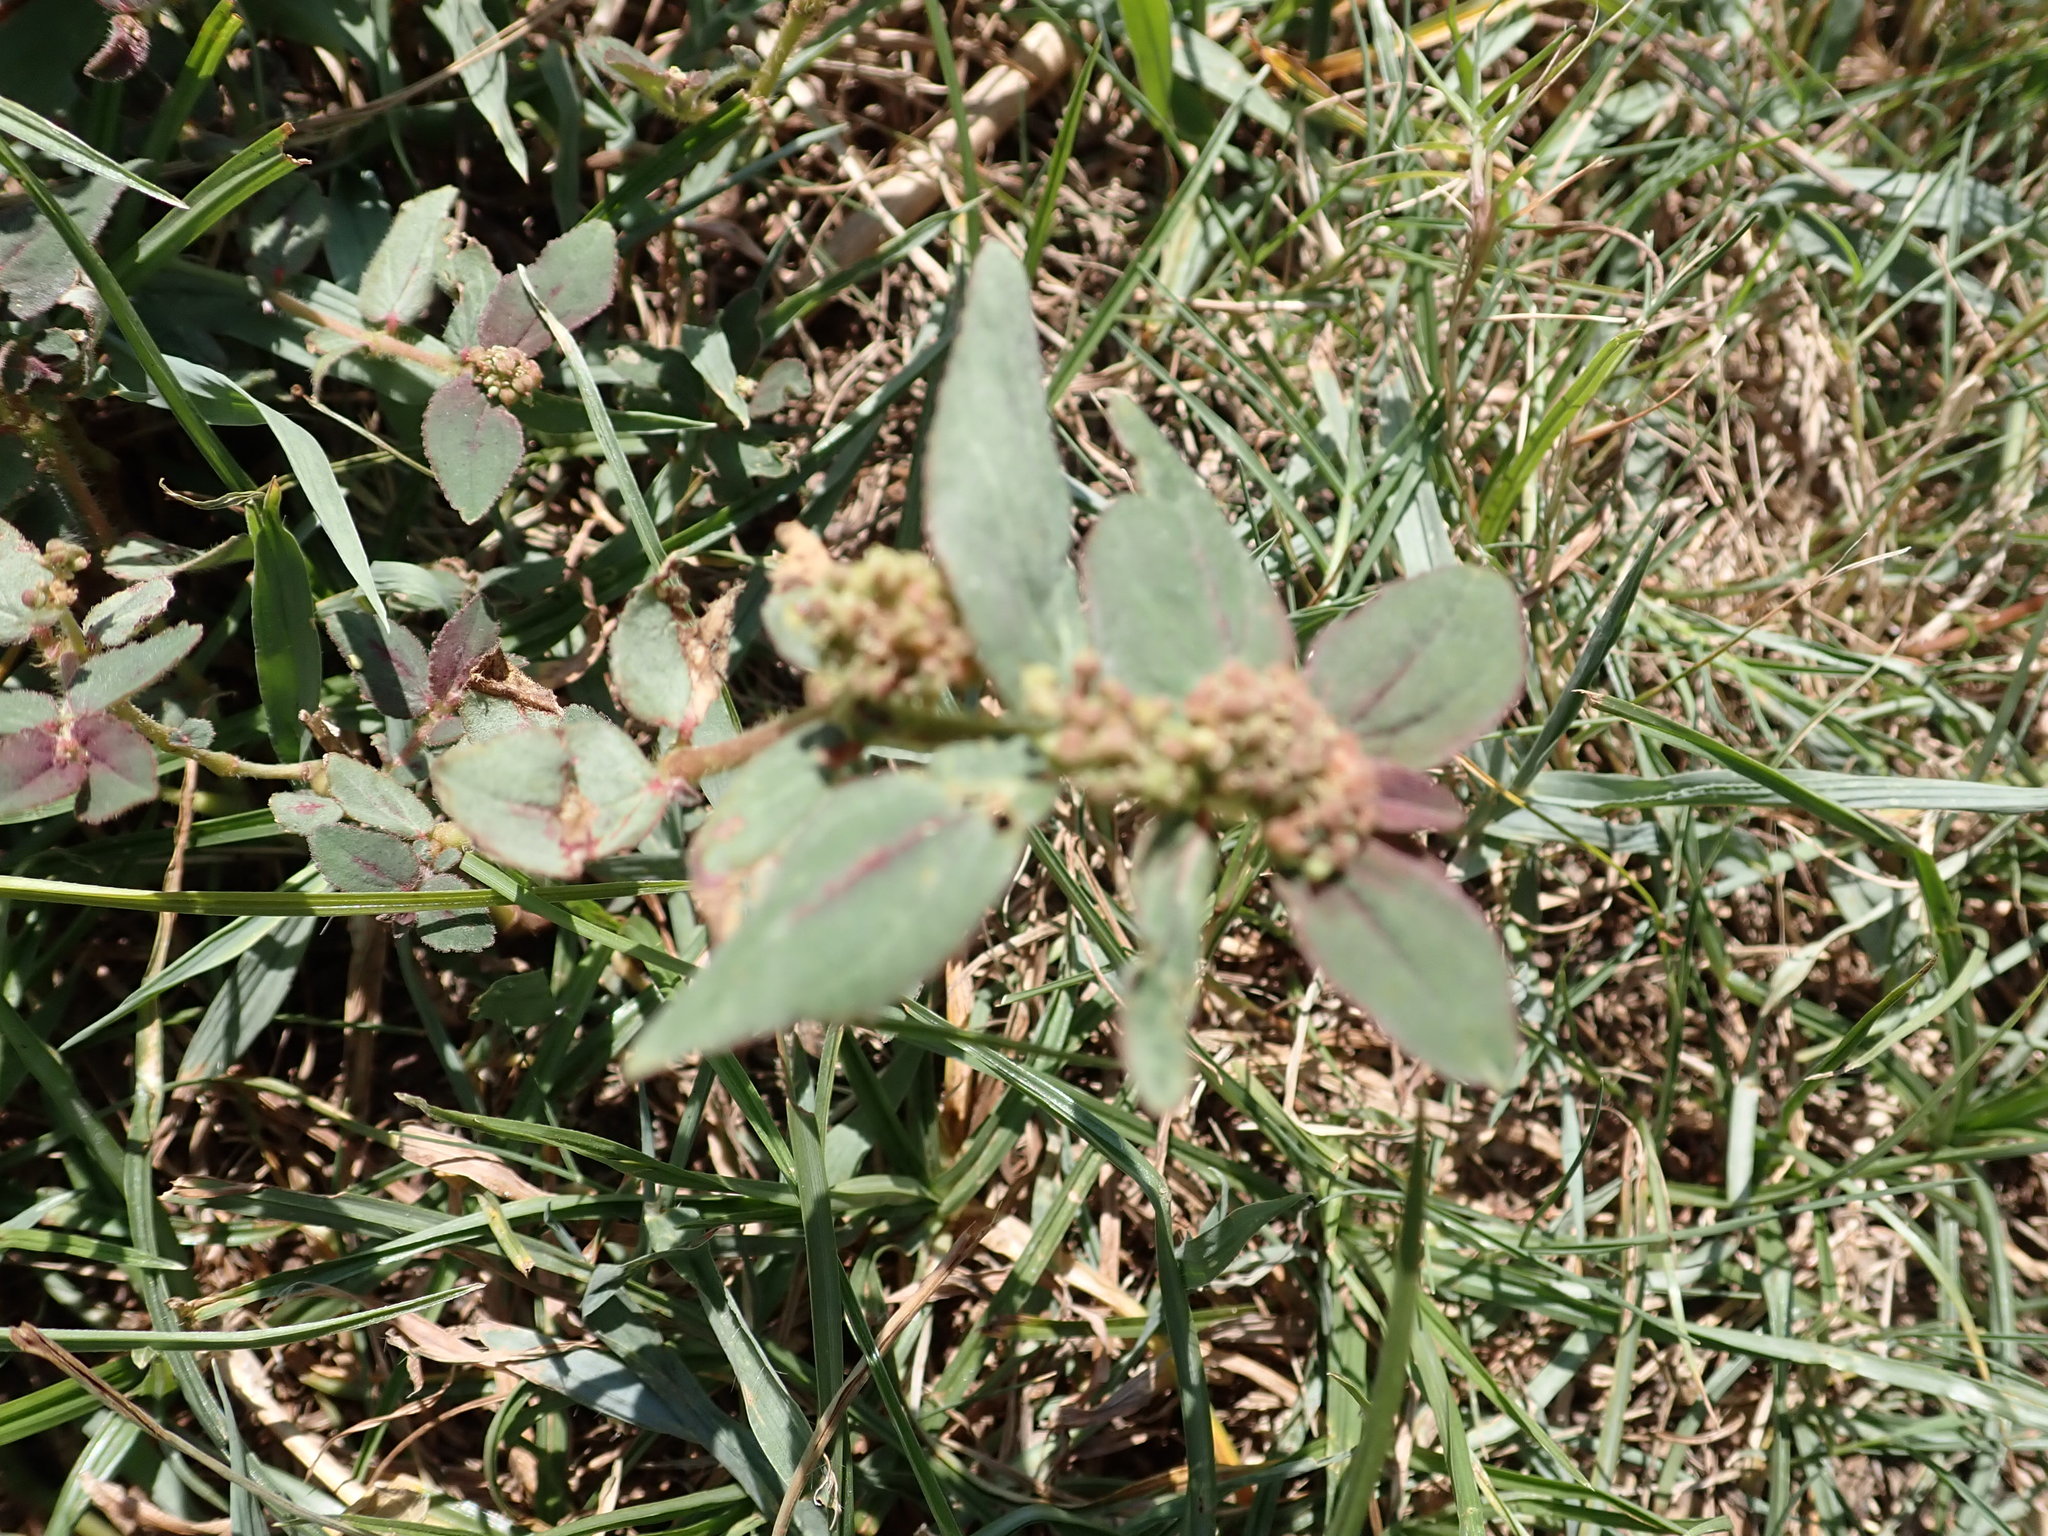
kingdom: Plantae
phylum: Tracheophyta
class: Magnoliopsida
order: Malpighiales
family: Euphorbiaceae
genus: Euphorbia
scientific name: Euphorbia hirta
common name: Pillpod sandmat
